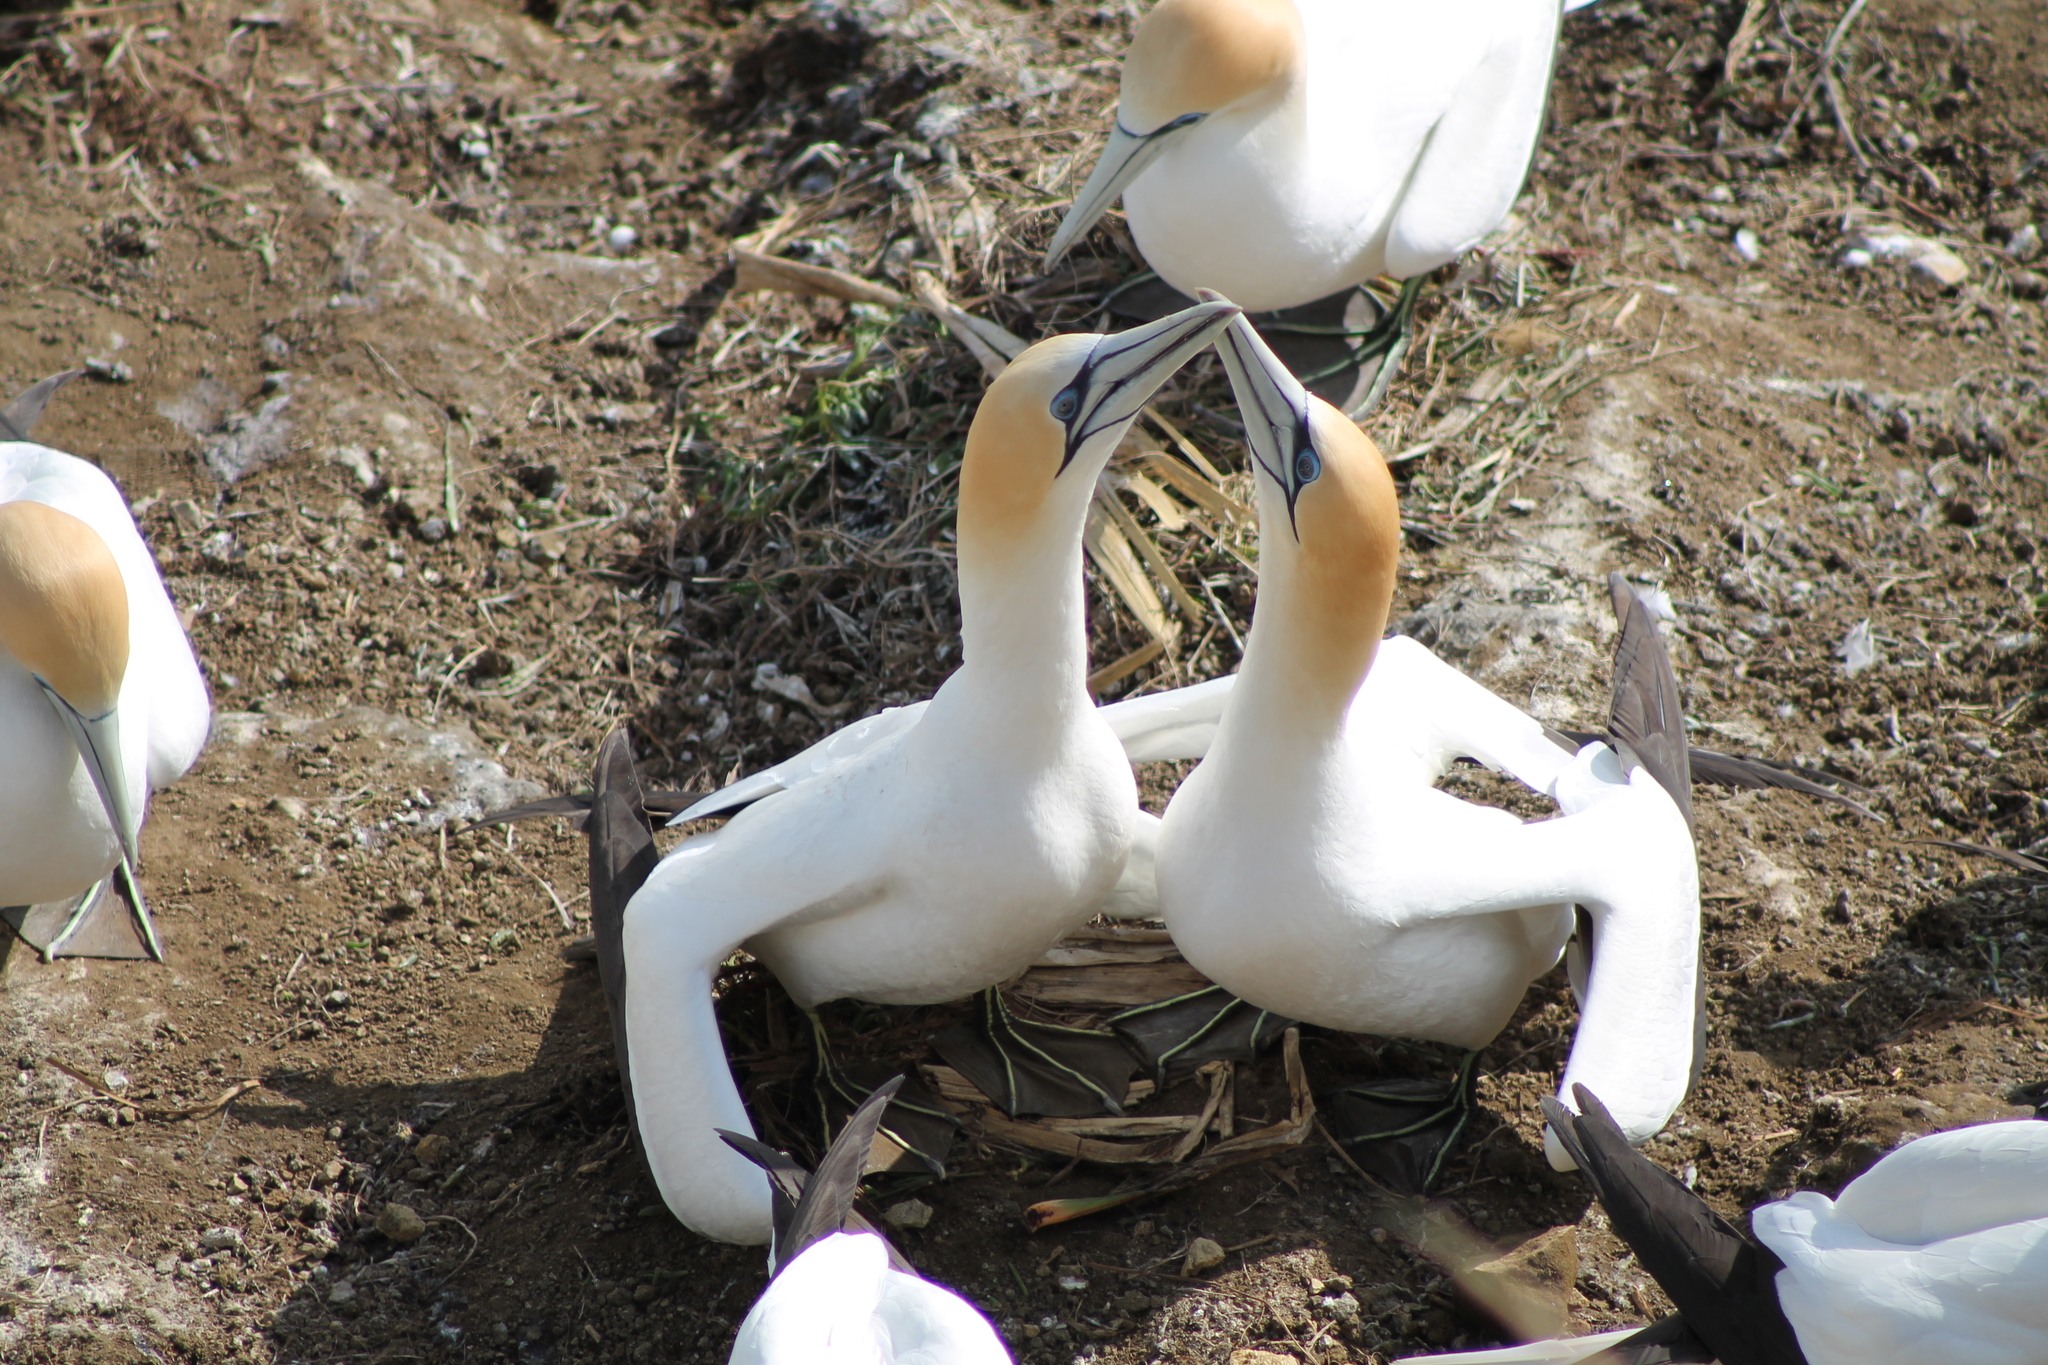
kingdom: Animalia
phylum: Chordata
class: Aves
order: Suliformes
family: Sulidae
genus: Morus
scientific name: Morus serrator
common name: Australasian gannet
